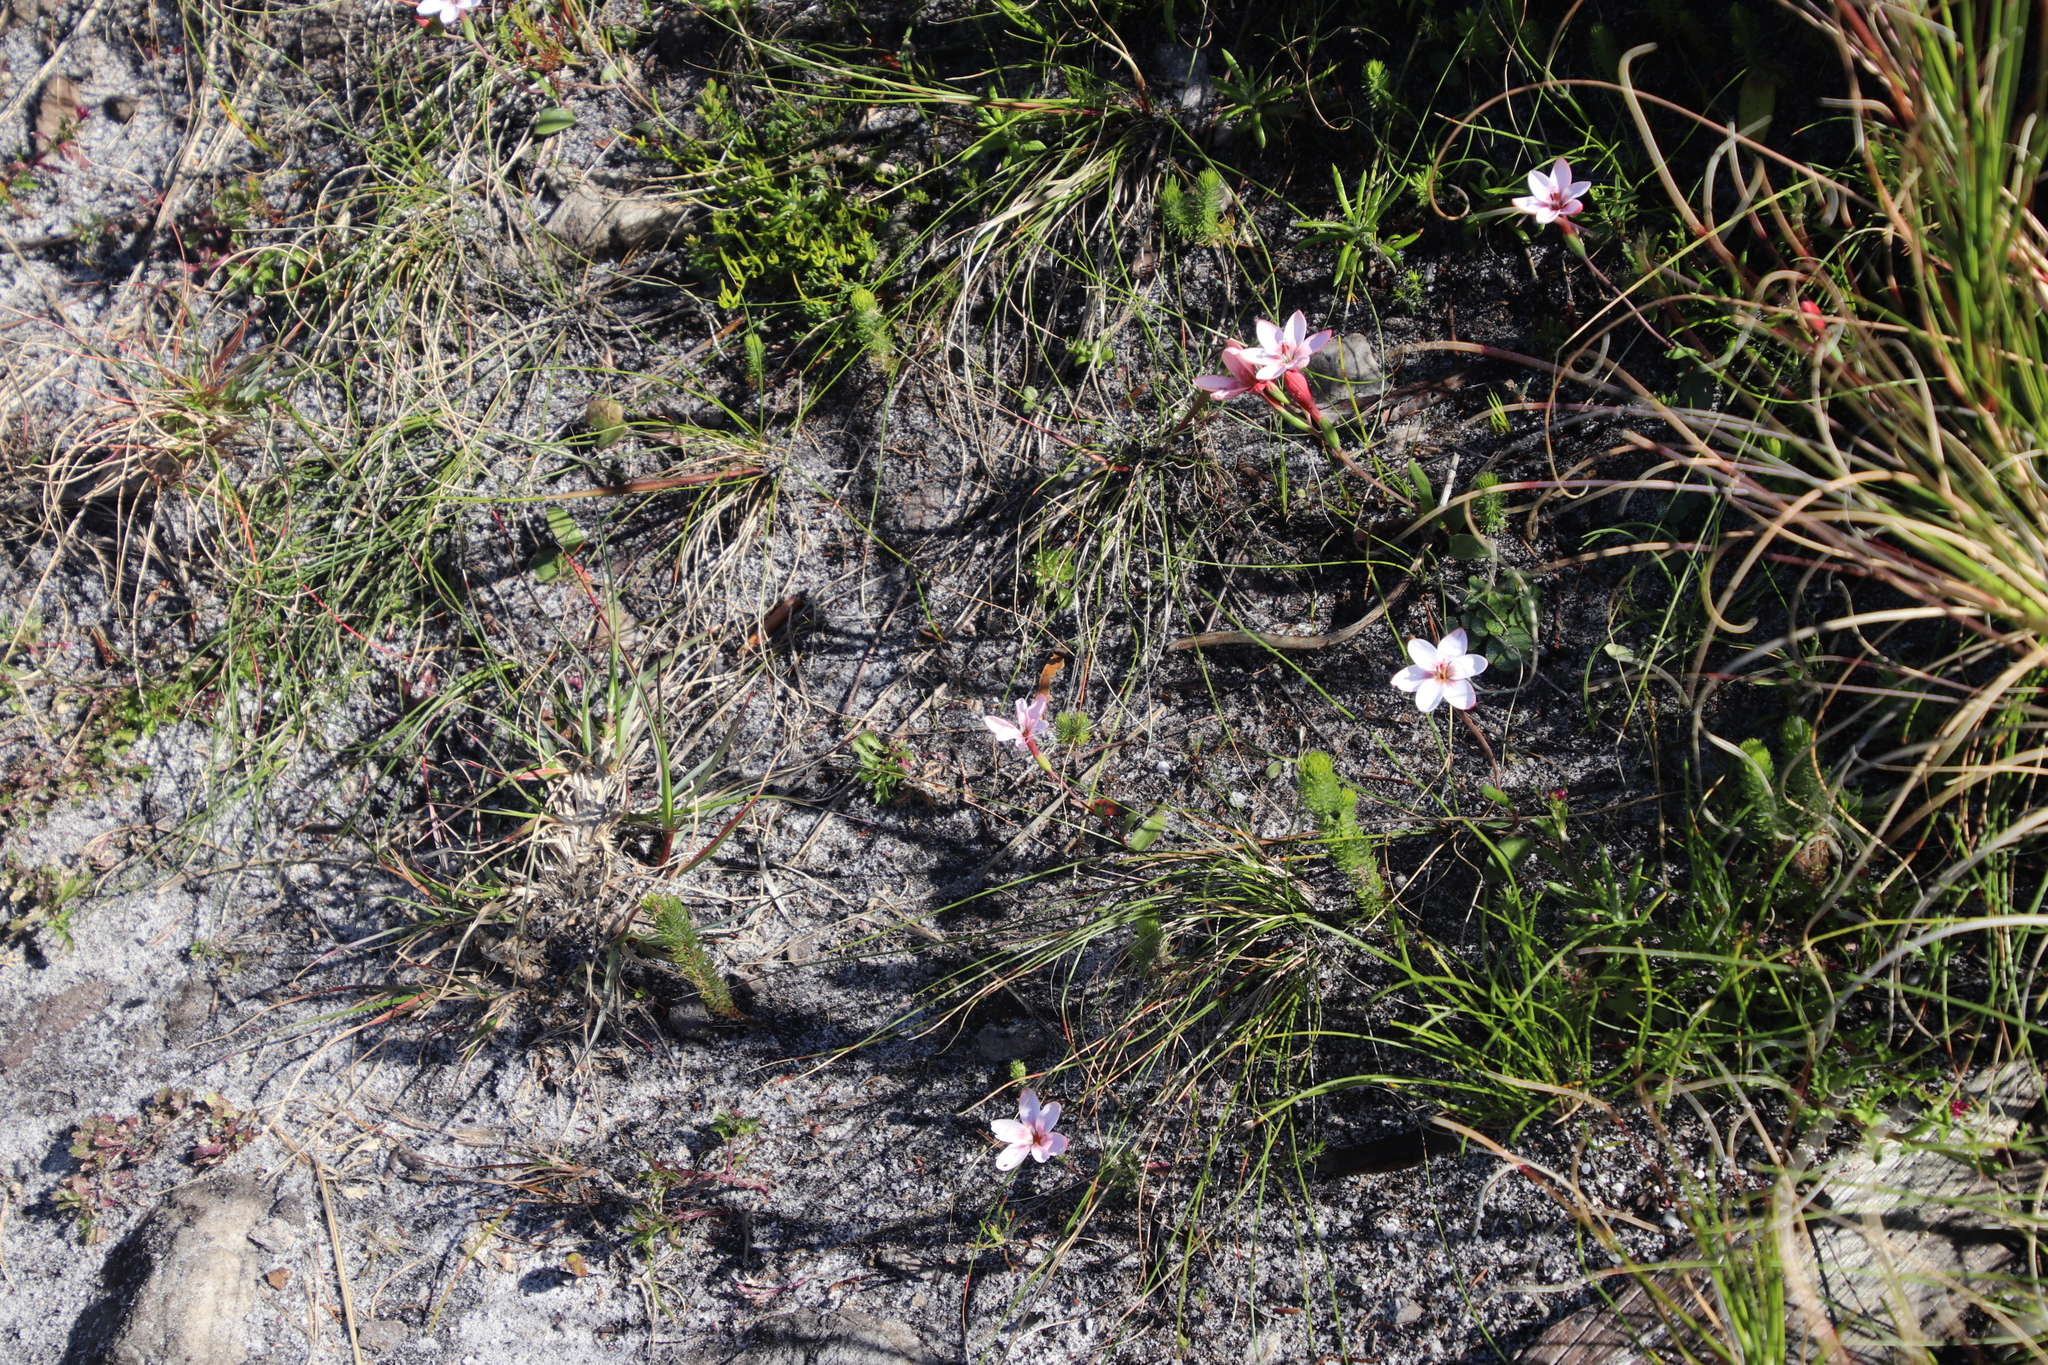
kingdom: Plantae
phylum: Tracheophyta
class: Liliopsida
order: Asparagales
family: Iridaceae
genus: Geissorhiza
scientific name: Geissorhiza ovata
